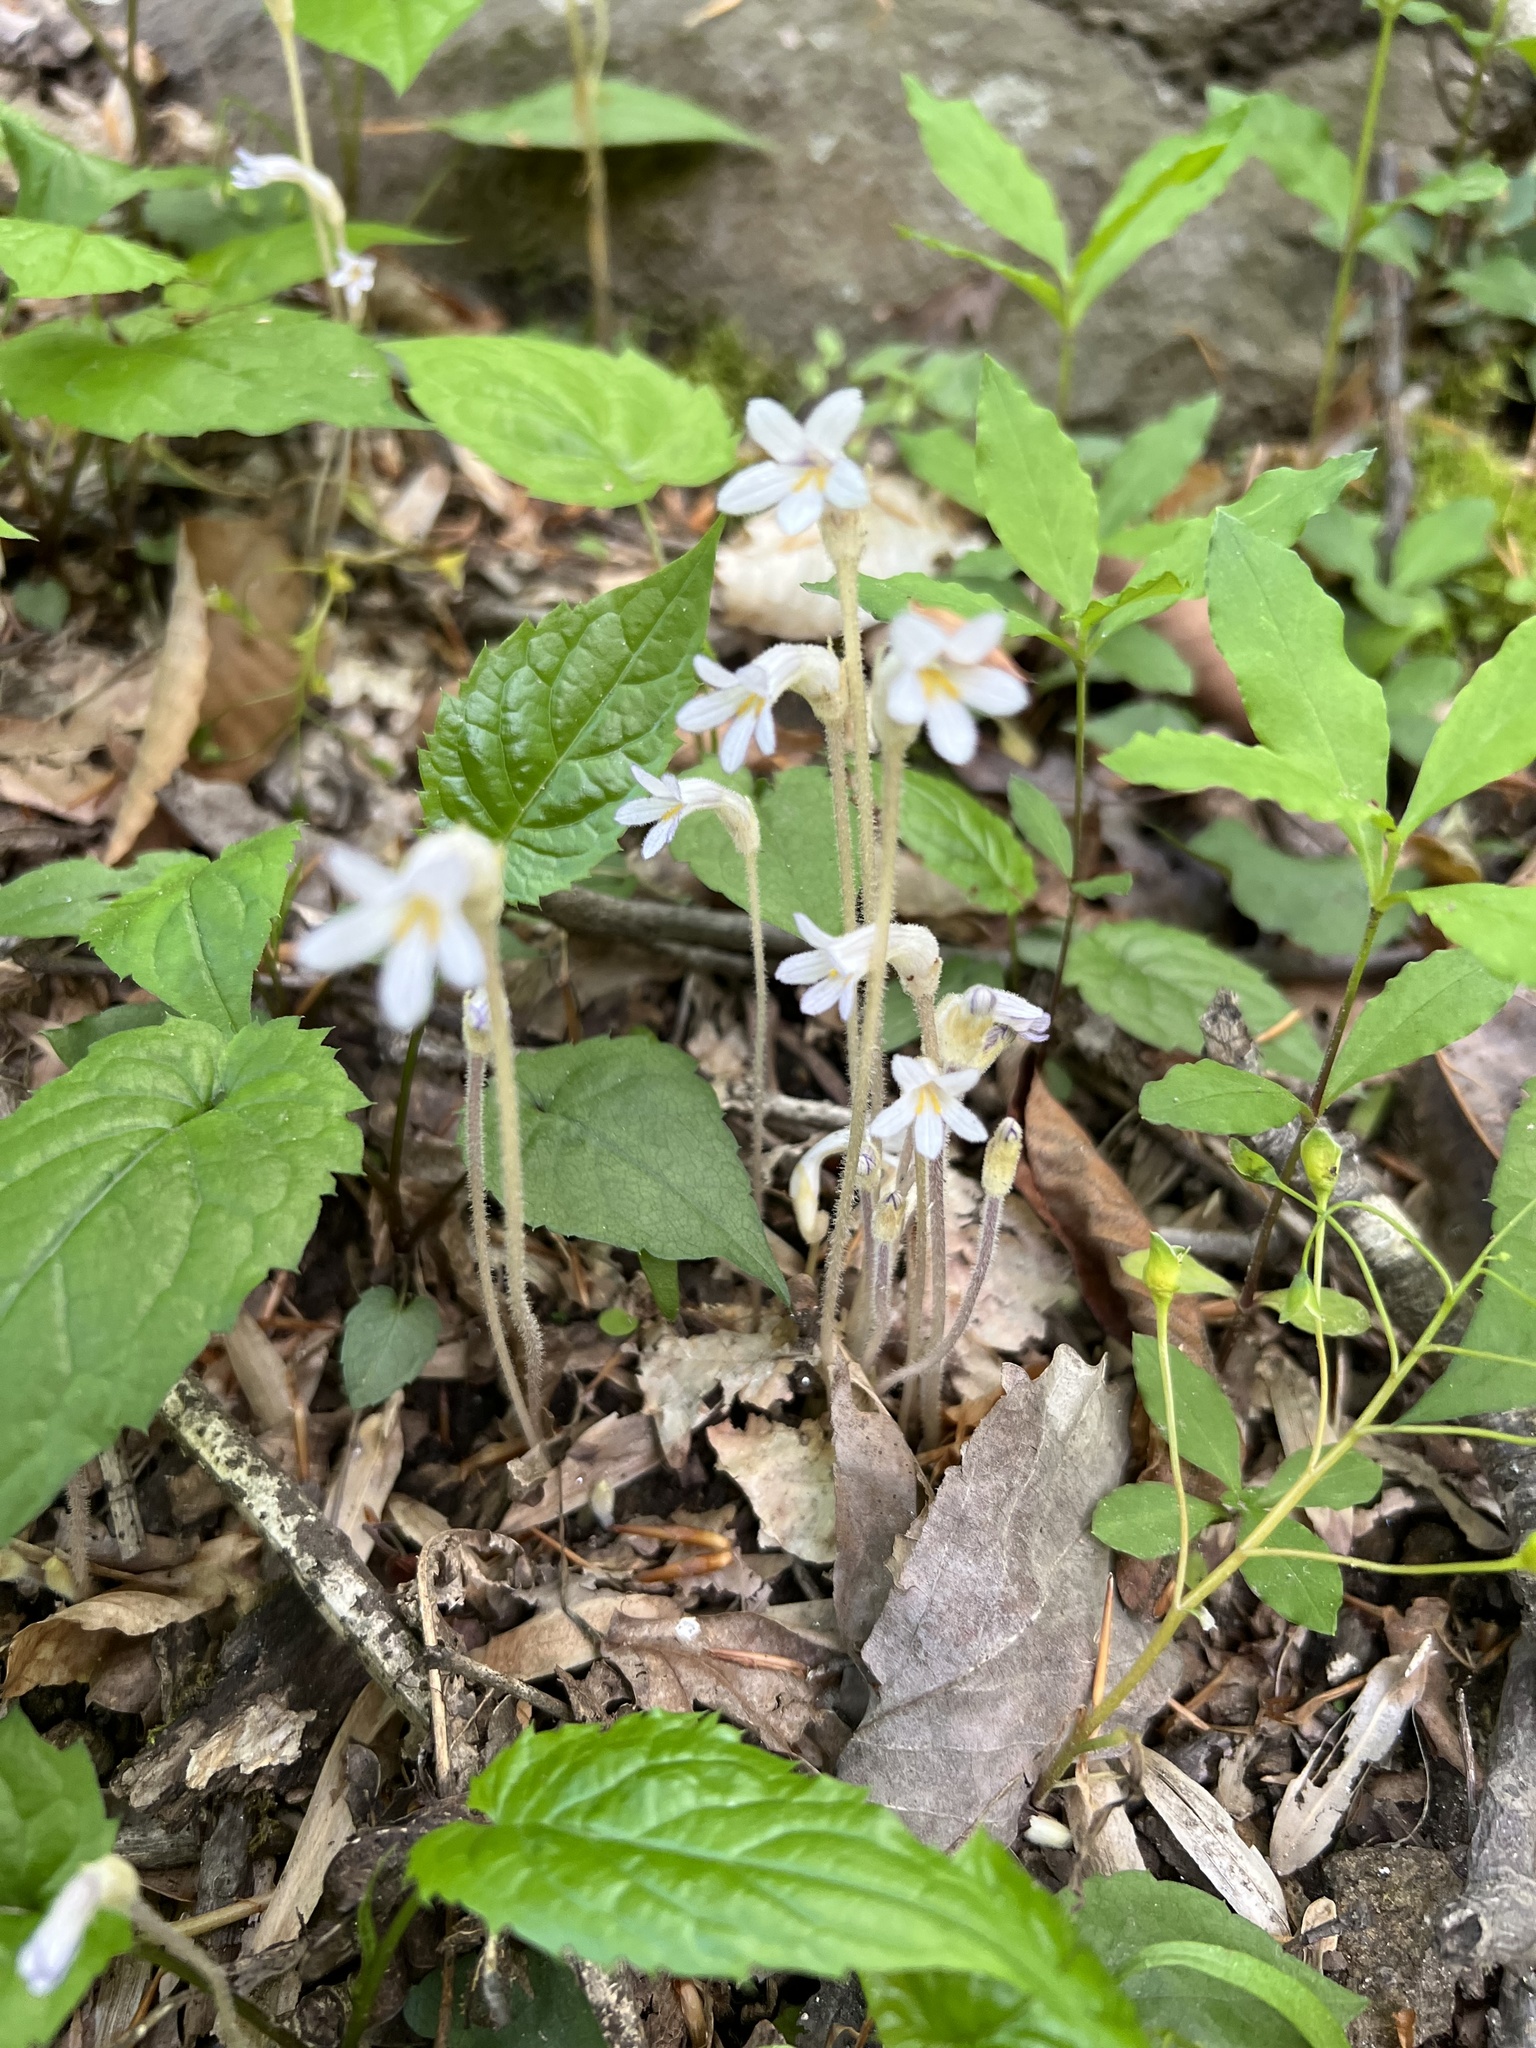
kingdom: Plantae
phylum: Tracheophyta
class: Magnoliopsida
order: Lamiales
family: Orobanchaceae
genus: Aphyllon
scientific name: Aphyllon uniflorum
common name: One-flowered broomrape
